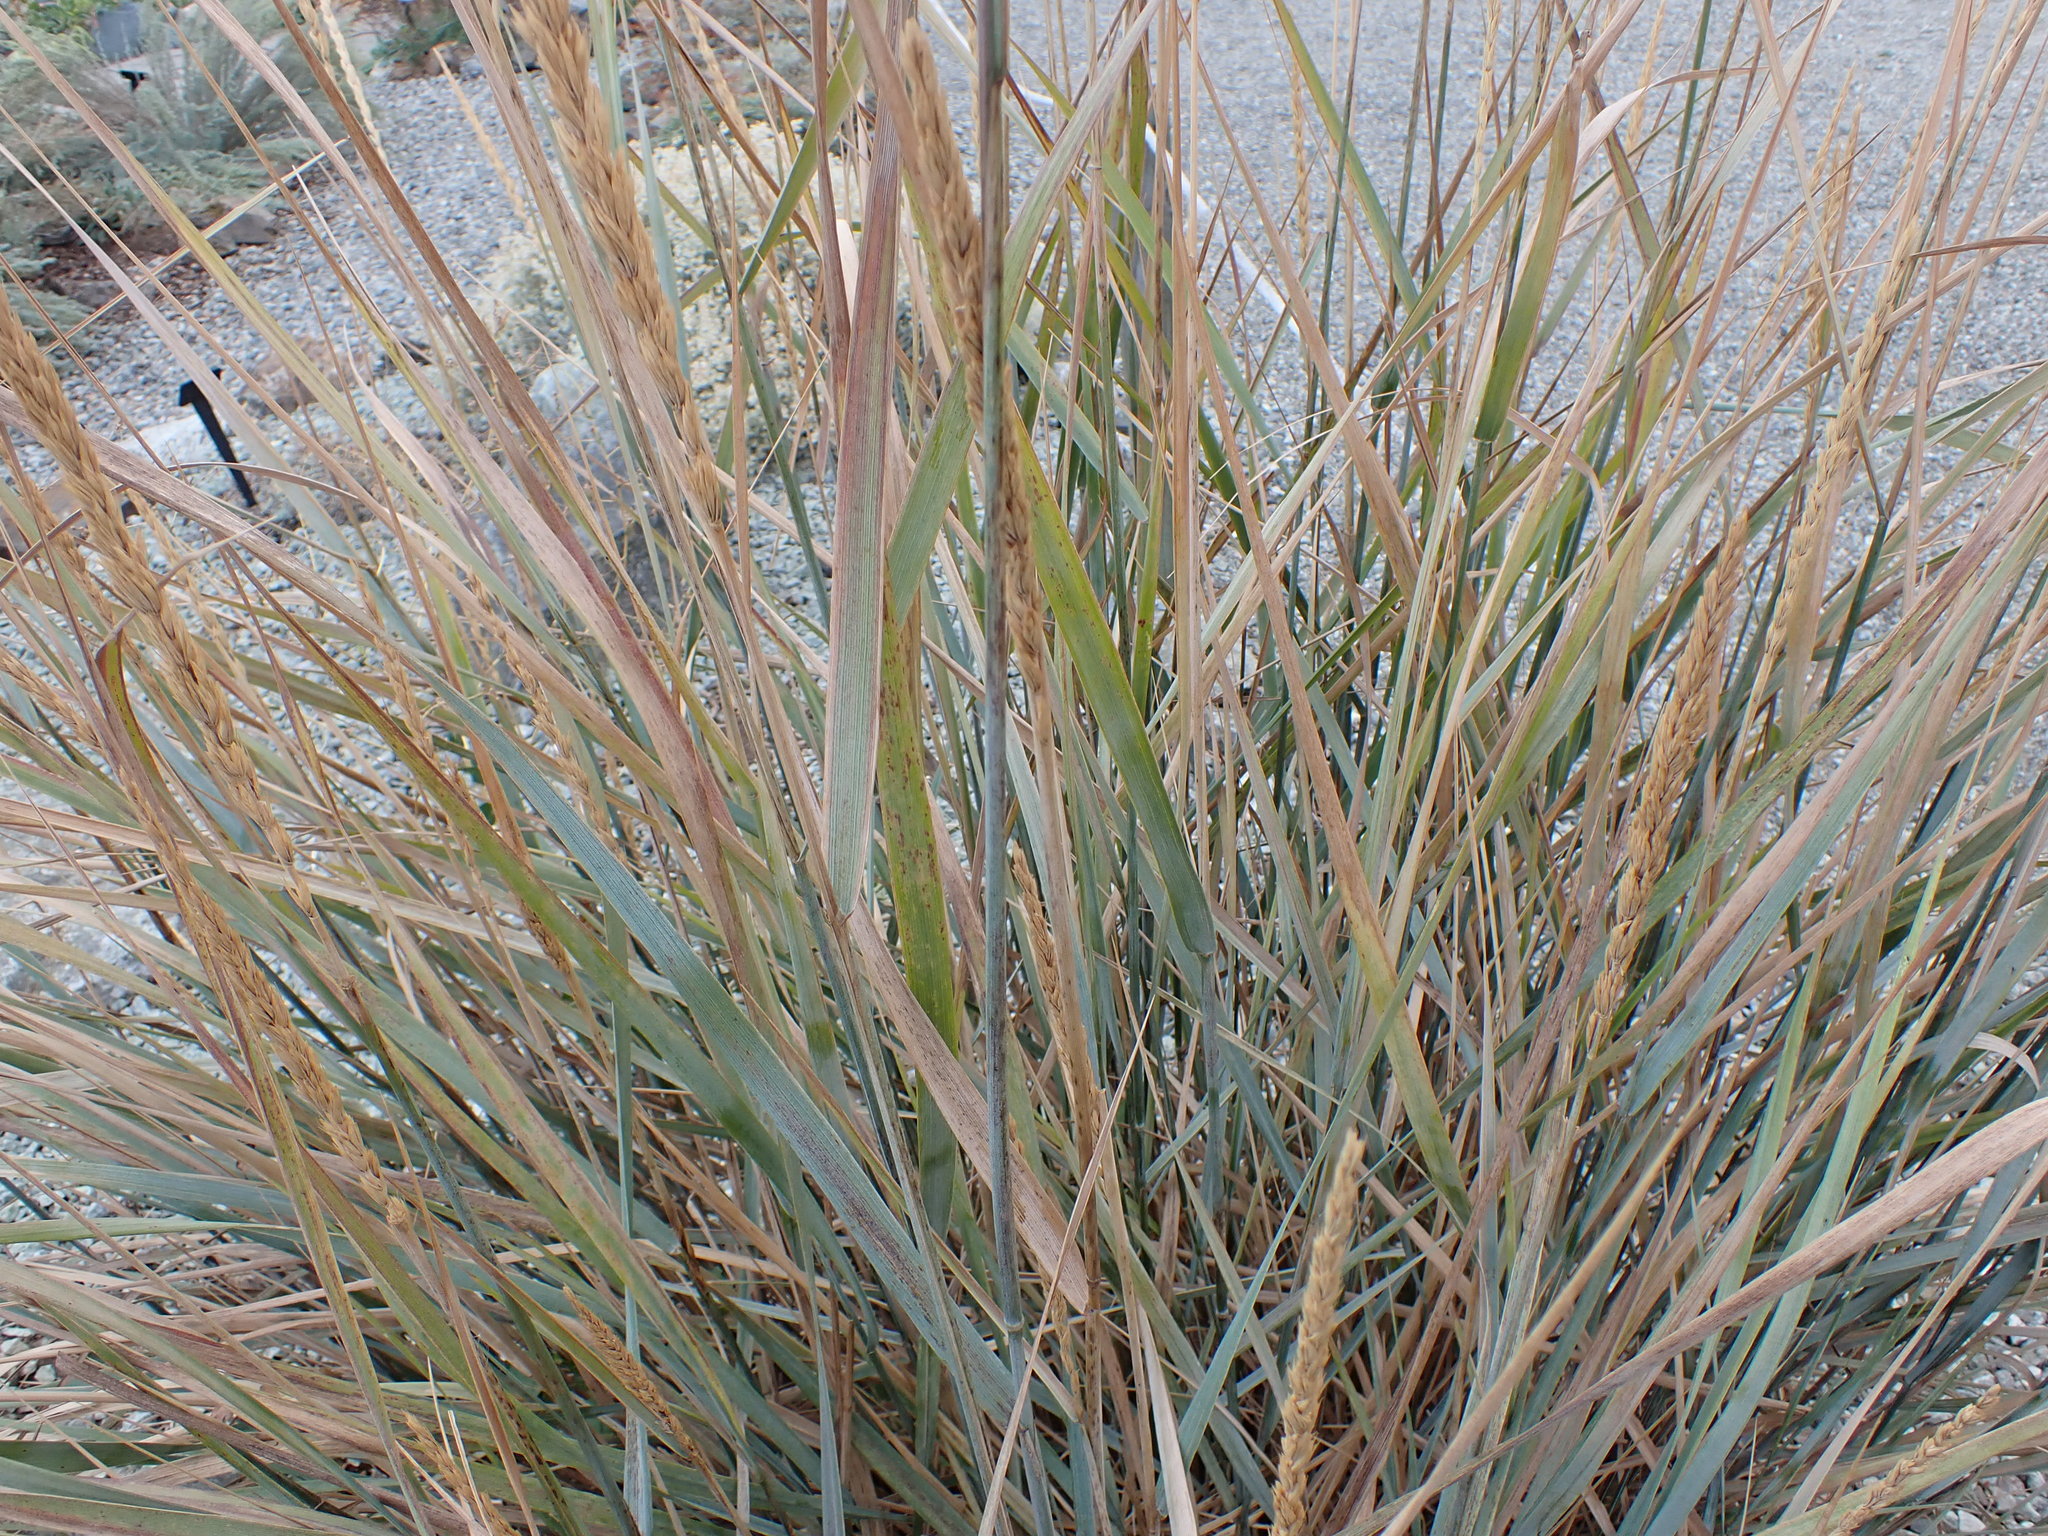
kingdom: Plantae
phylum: Tracheophyta
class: Liliopsida
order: Poales
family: Poaceae
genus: Leymus
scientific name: Leymus cinereus
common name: Basin wild rye
